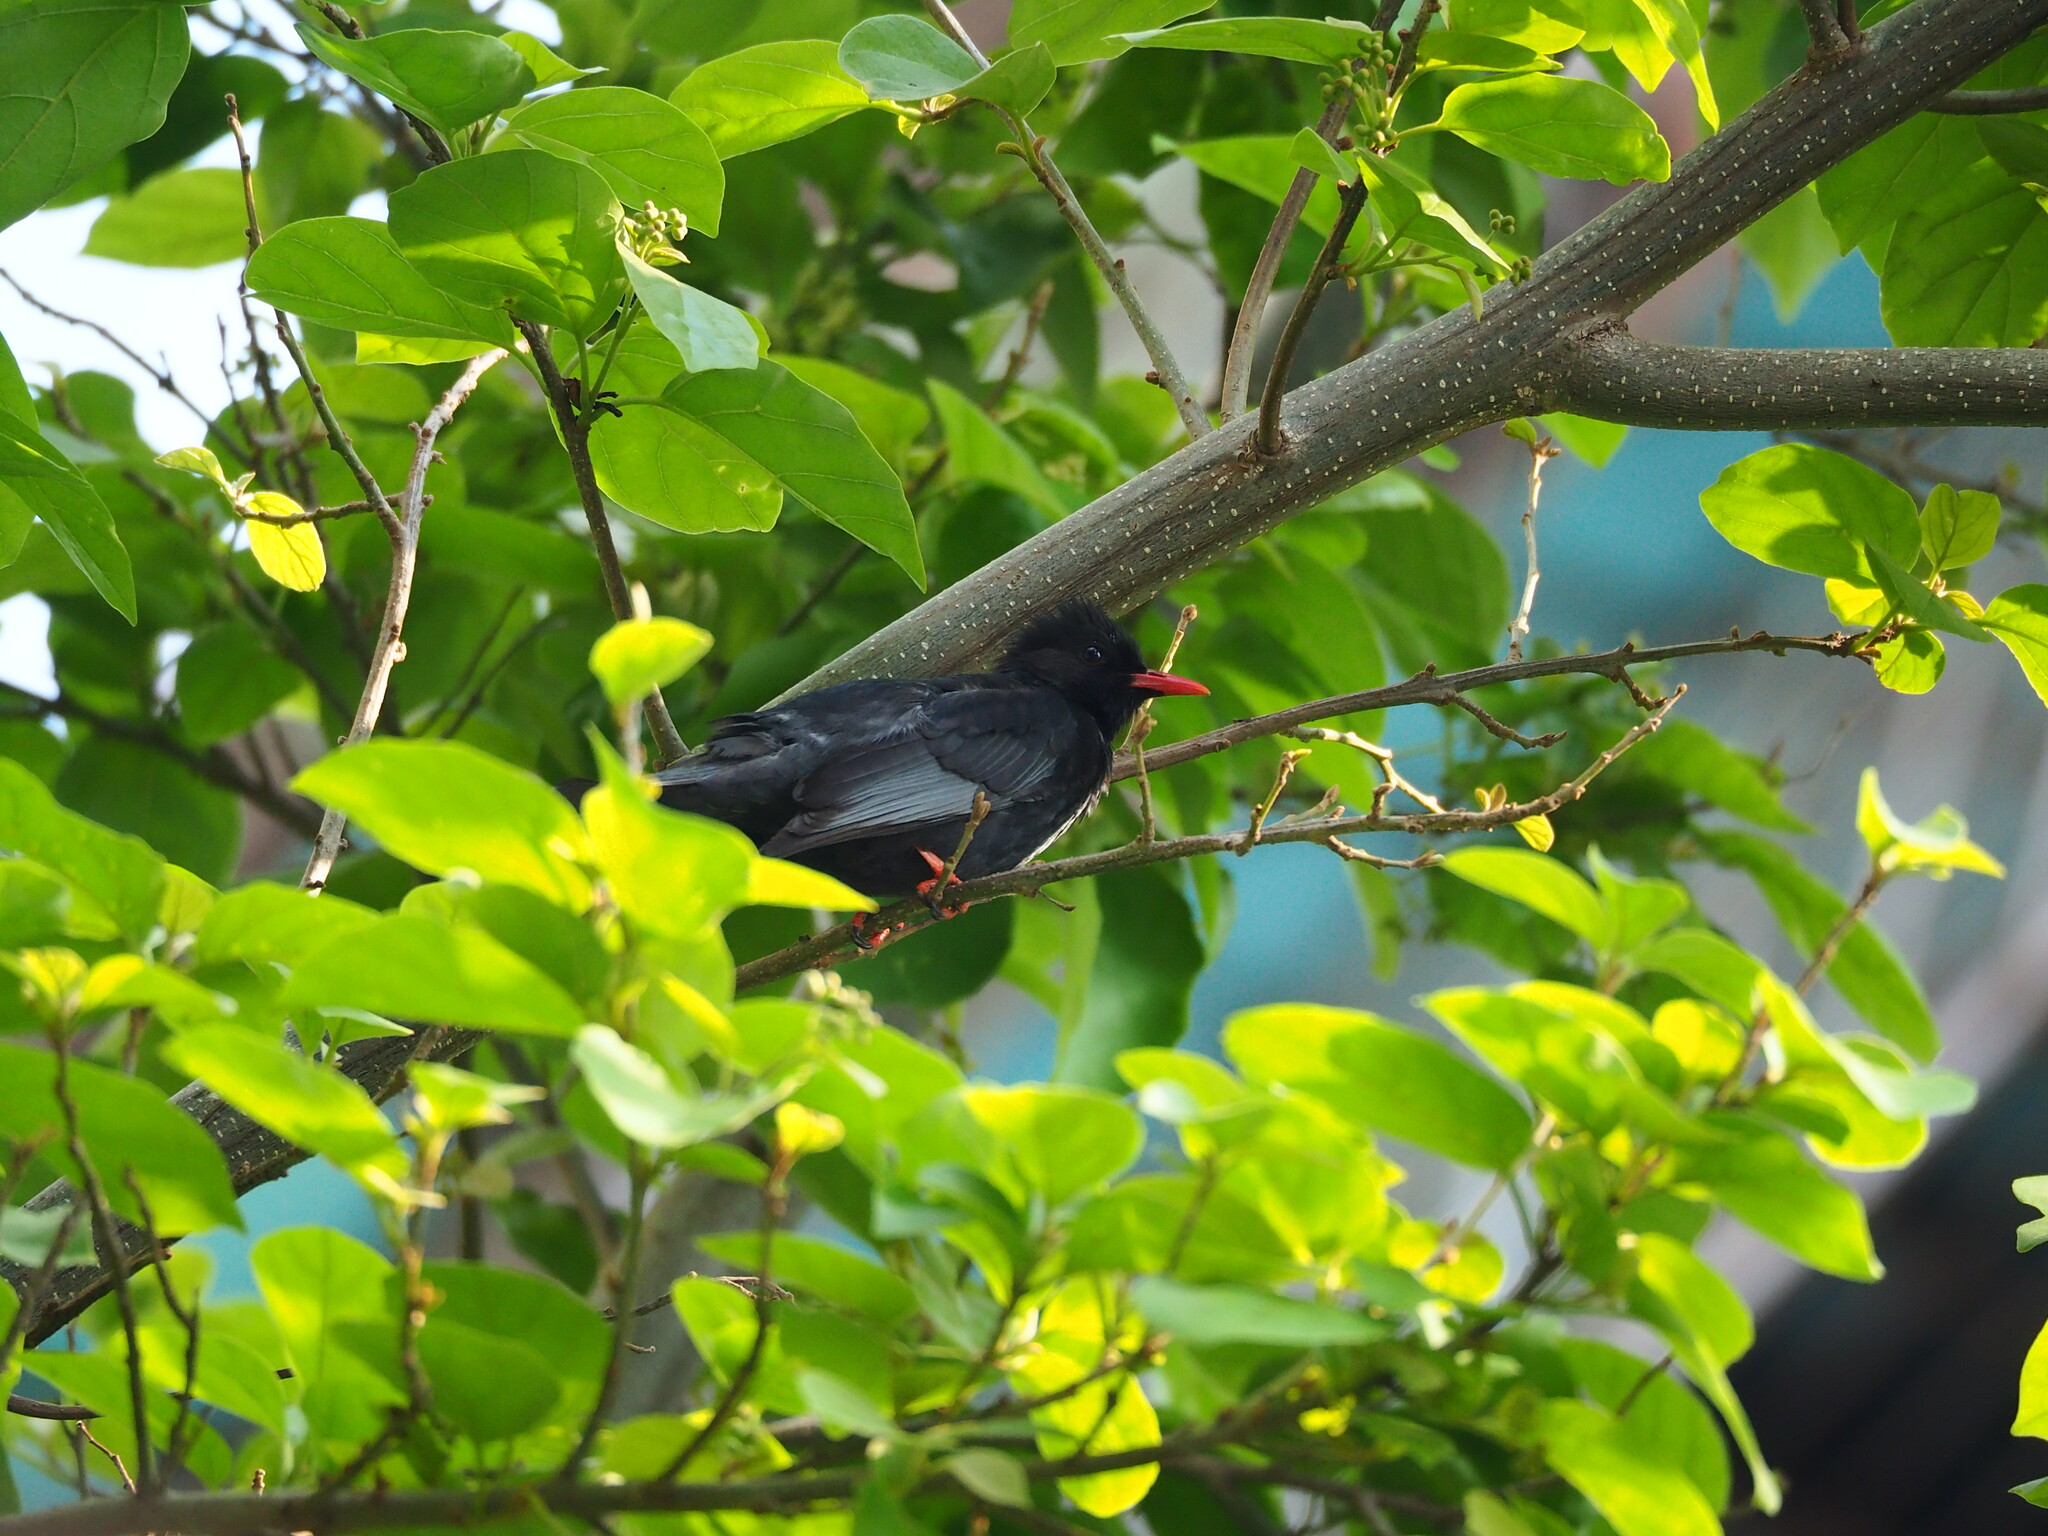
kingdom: Animalia
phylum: Chordata
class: Aves
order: Passeriformes
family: Pycnonotidae
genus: Hypsipetes
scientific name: Hypsipetes leucocephalus
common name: Black bulbul
